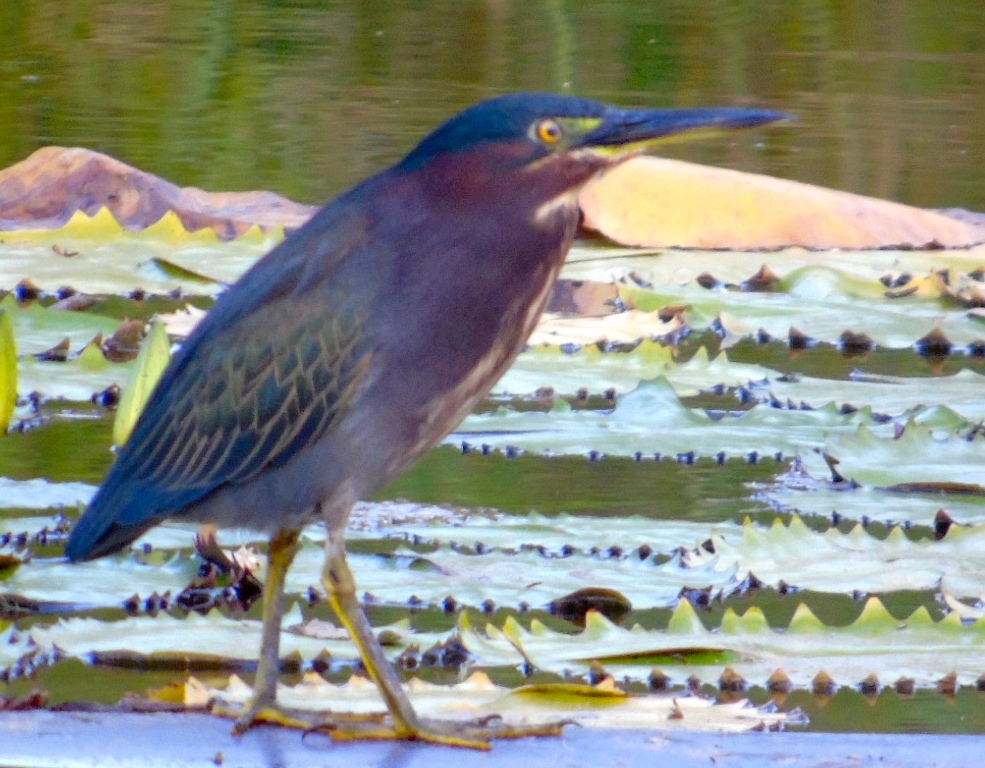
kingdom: Animalia
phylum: Chordata
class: Aves
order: Pelecaniformes
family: Ardeidae
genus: Butorides
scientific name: Butorides virescens
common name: Green heron
